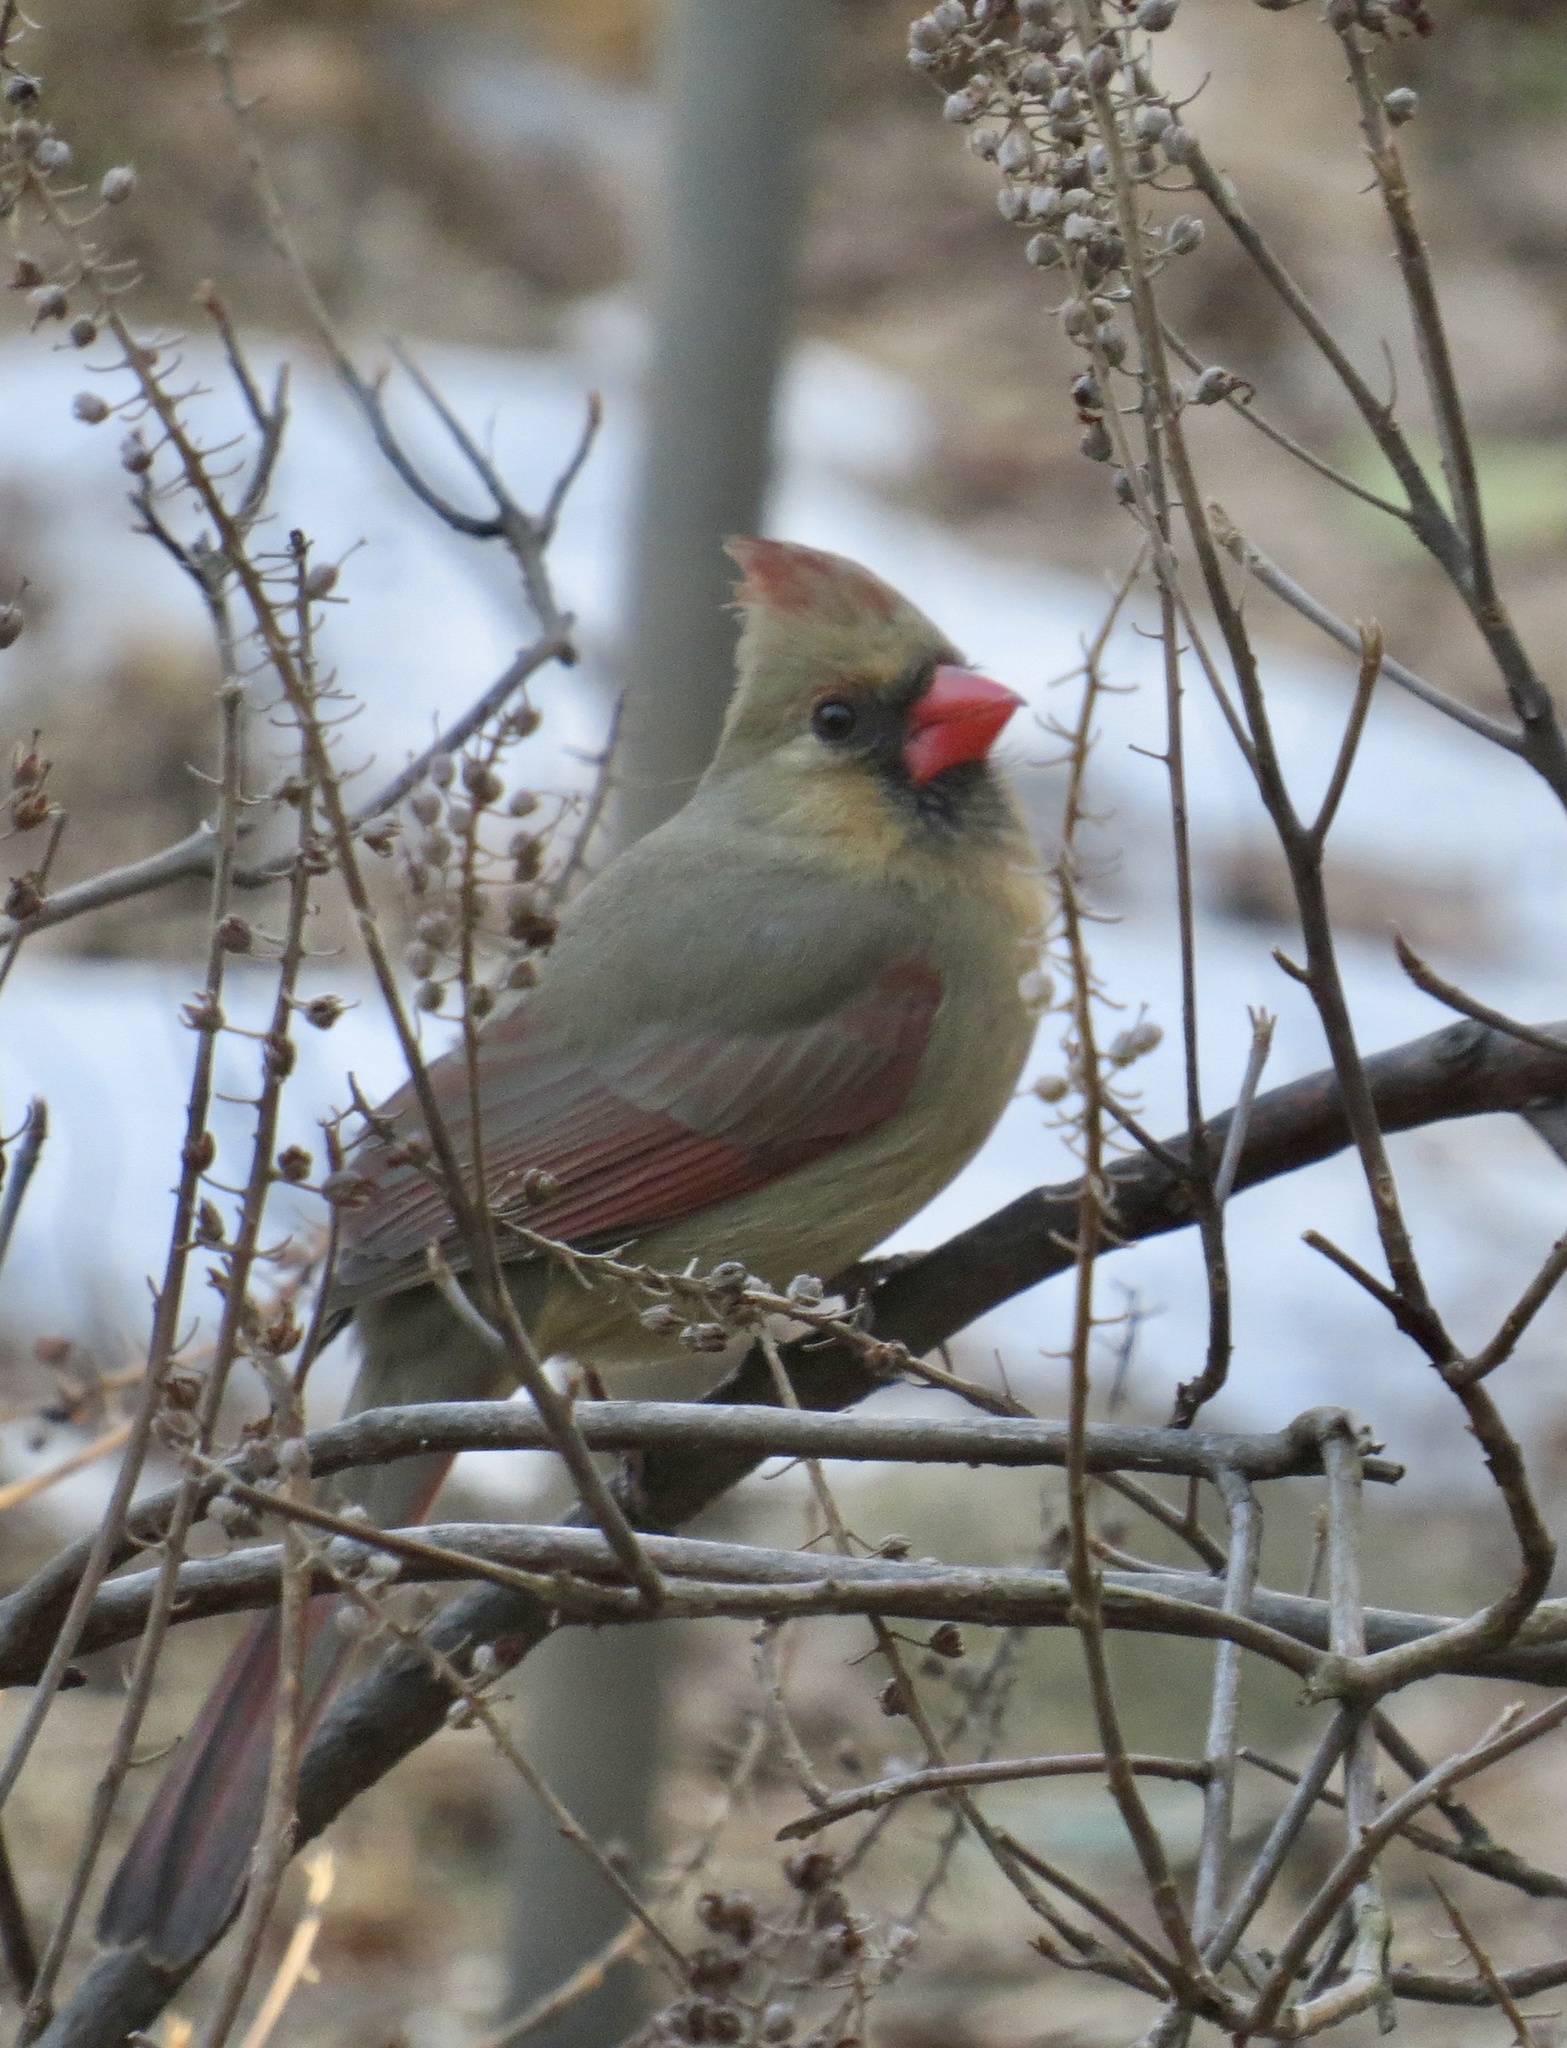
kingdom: Animalia
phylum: Chordata
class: Aves
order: Passeriformes
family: Cardinalidae
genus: Cardinalis
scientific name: Cardinalis cardinalis
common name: Northern cardinal
